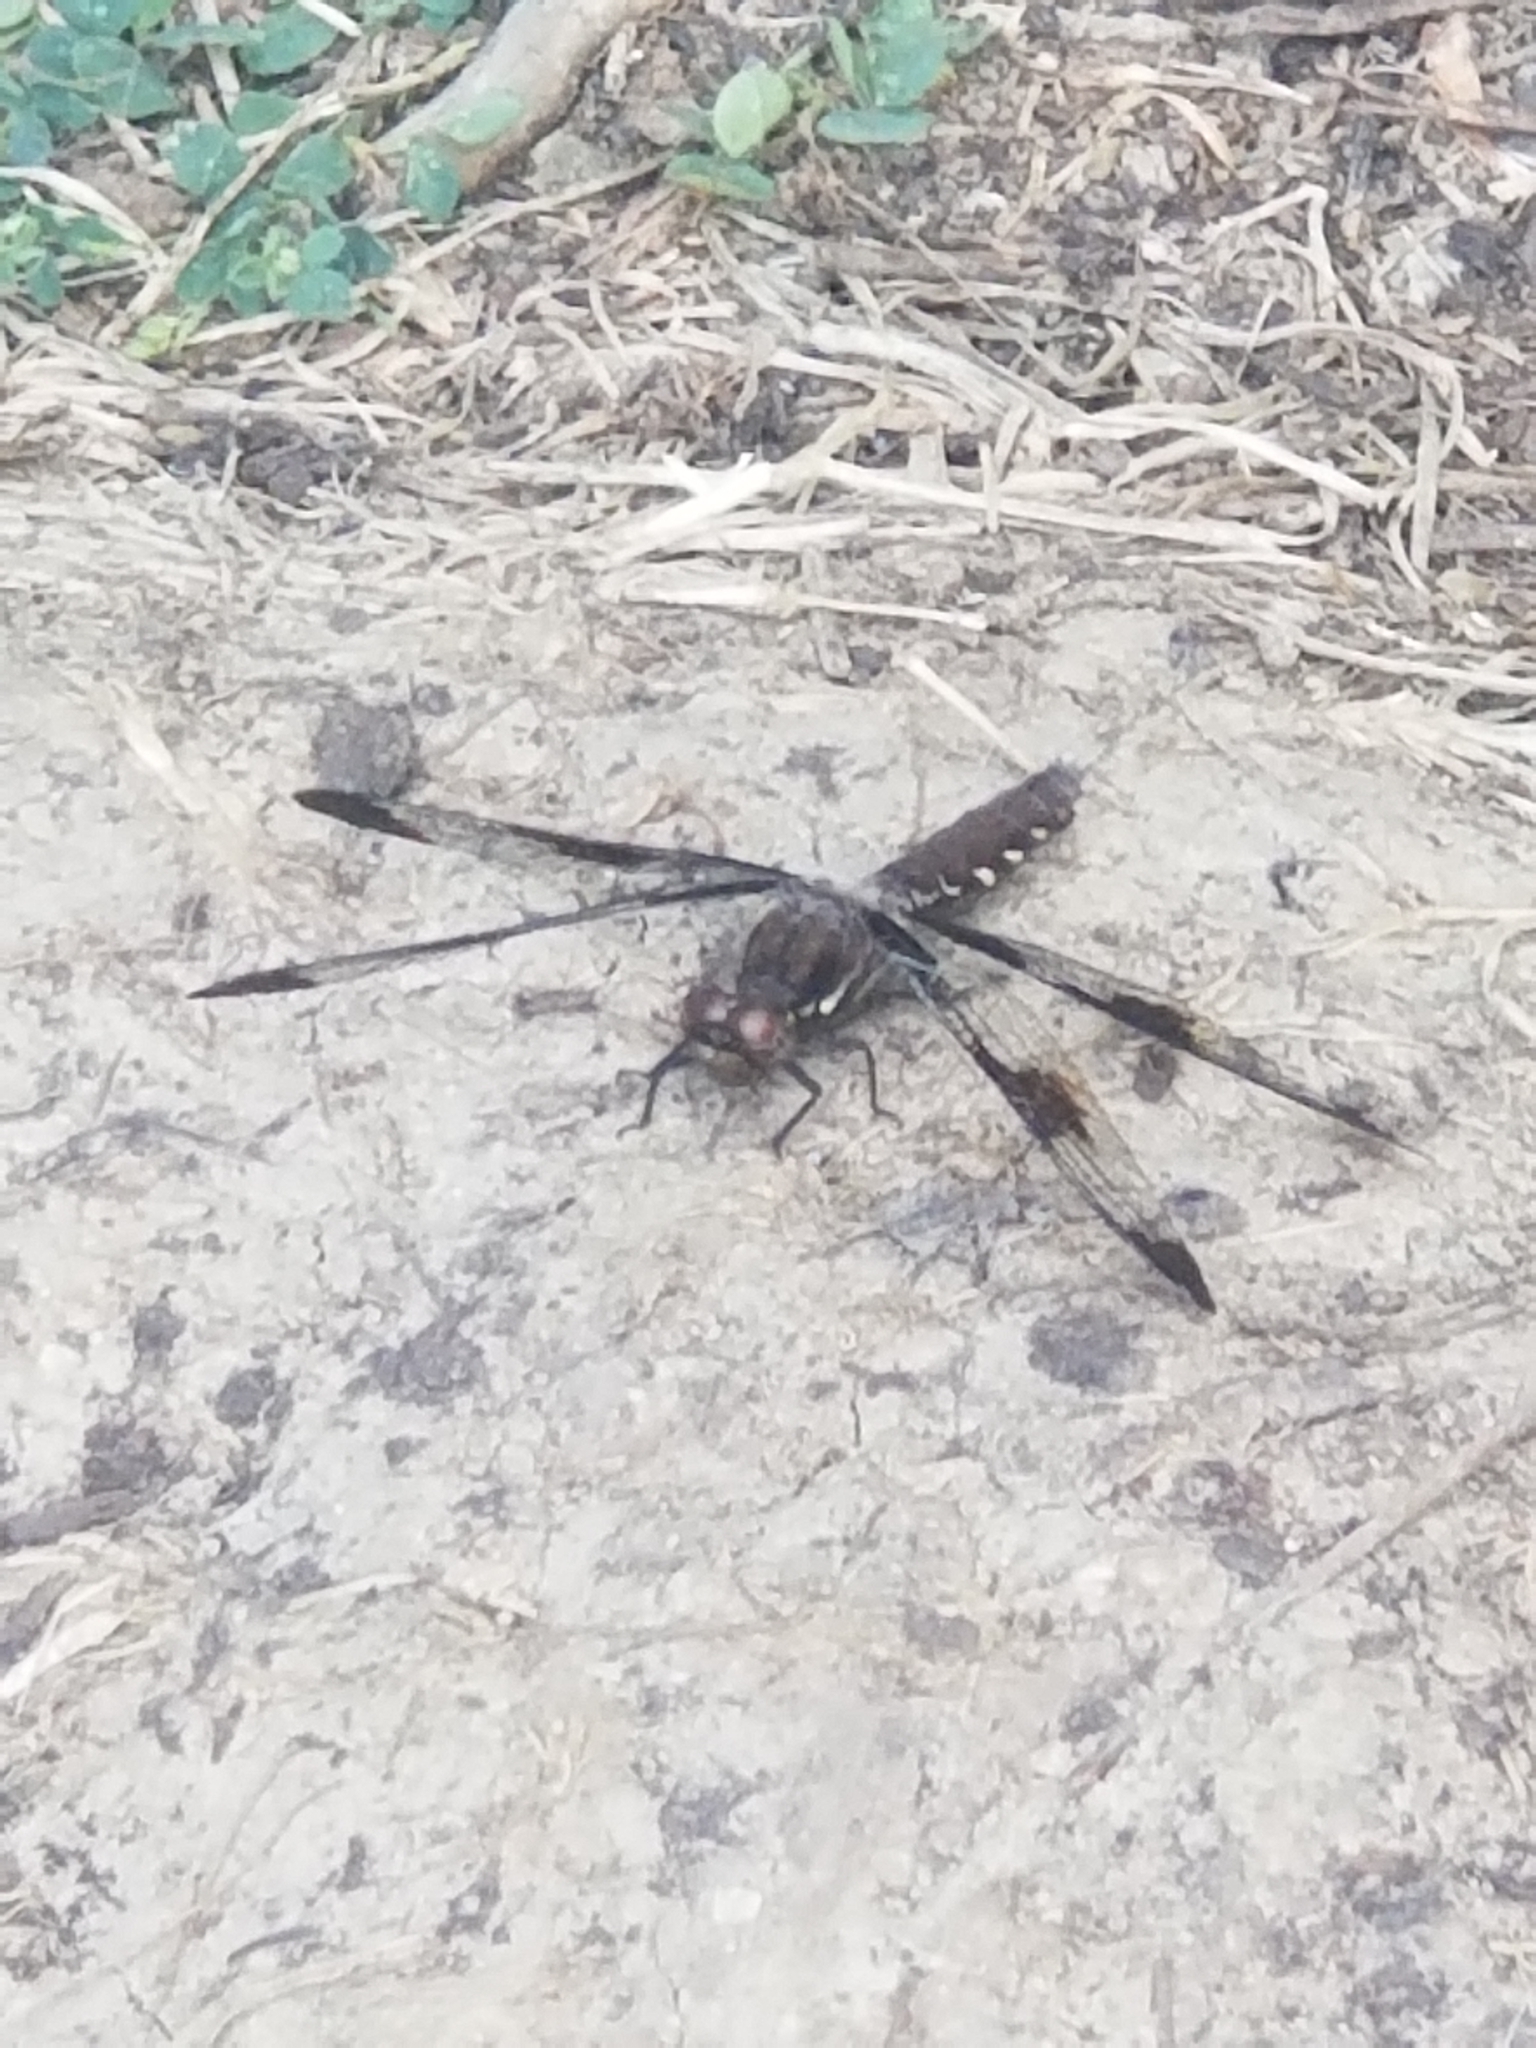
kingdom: Animalia
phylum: Arthropoda
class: Insecta
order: Odonata
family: Libellulidae
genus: Plathemis
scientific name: Plathemis lydia
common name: Common whitetail
